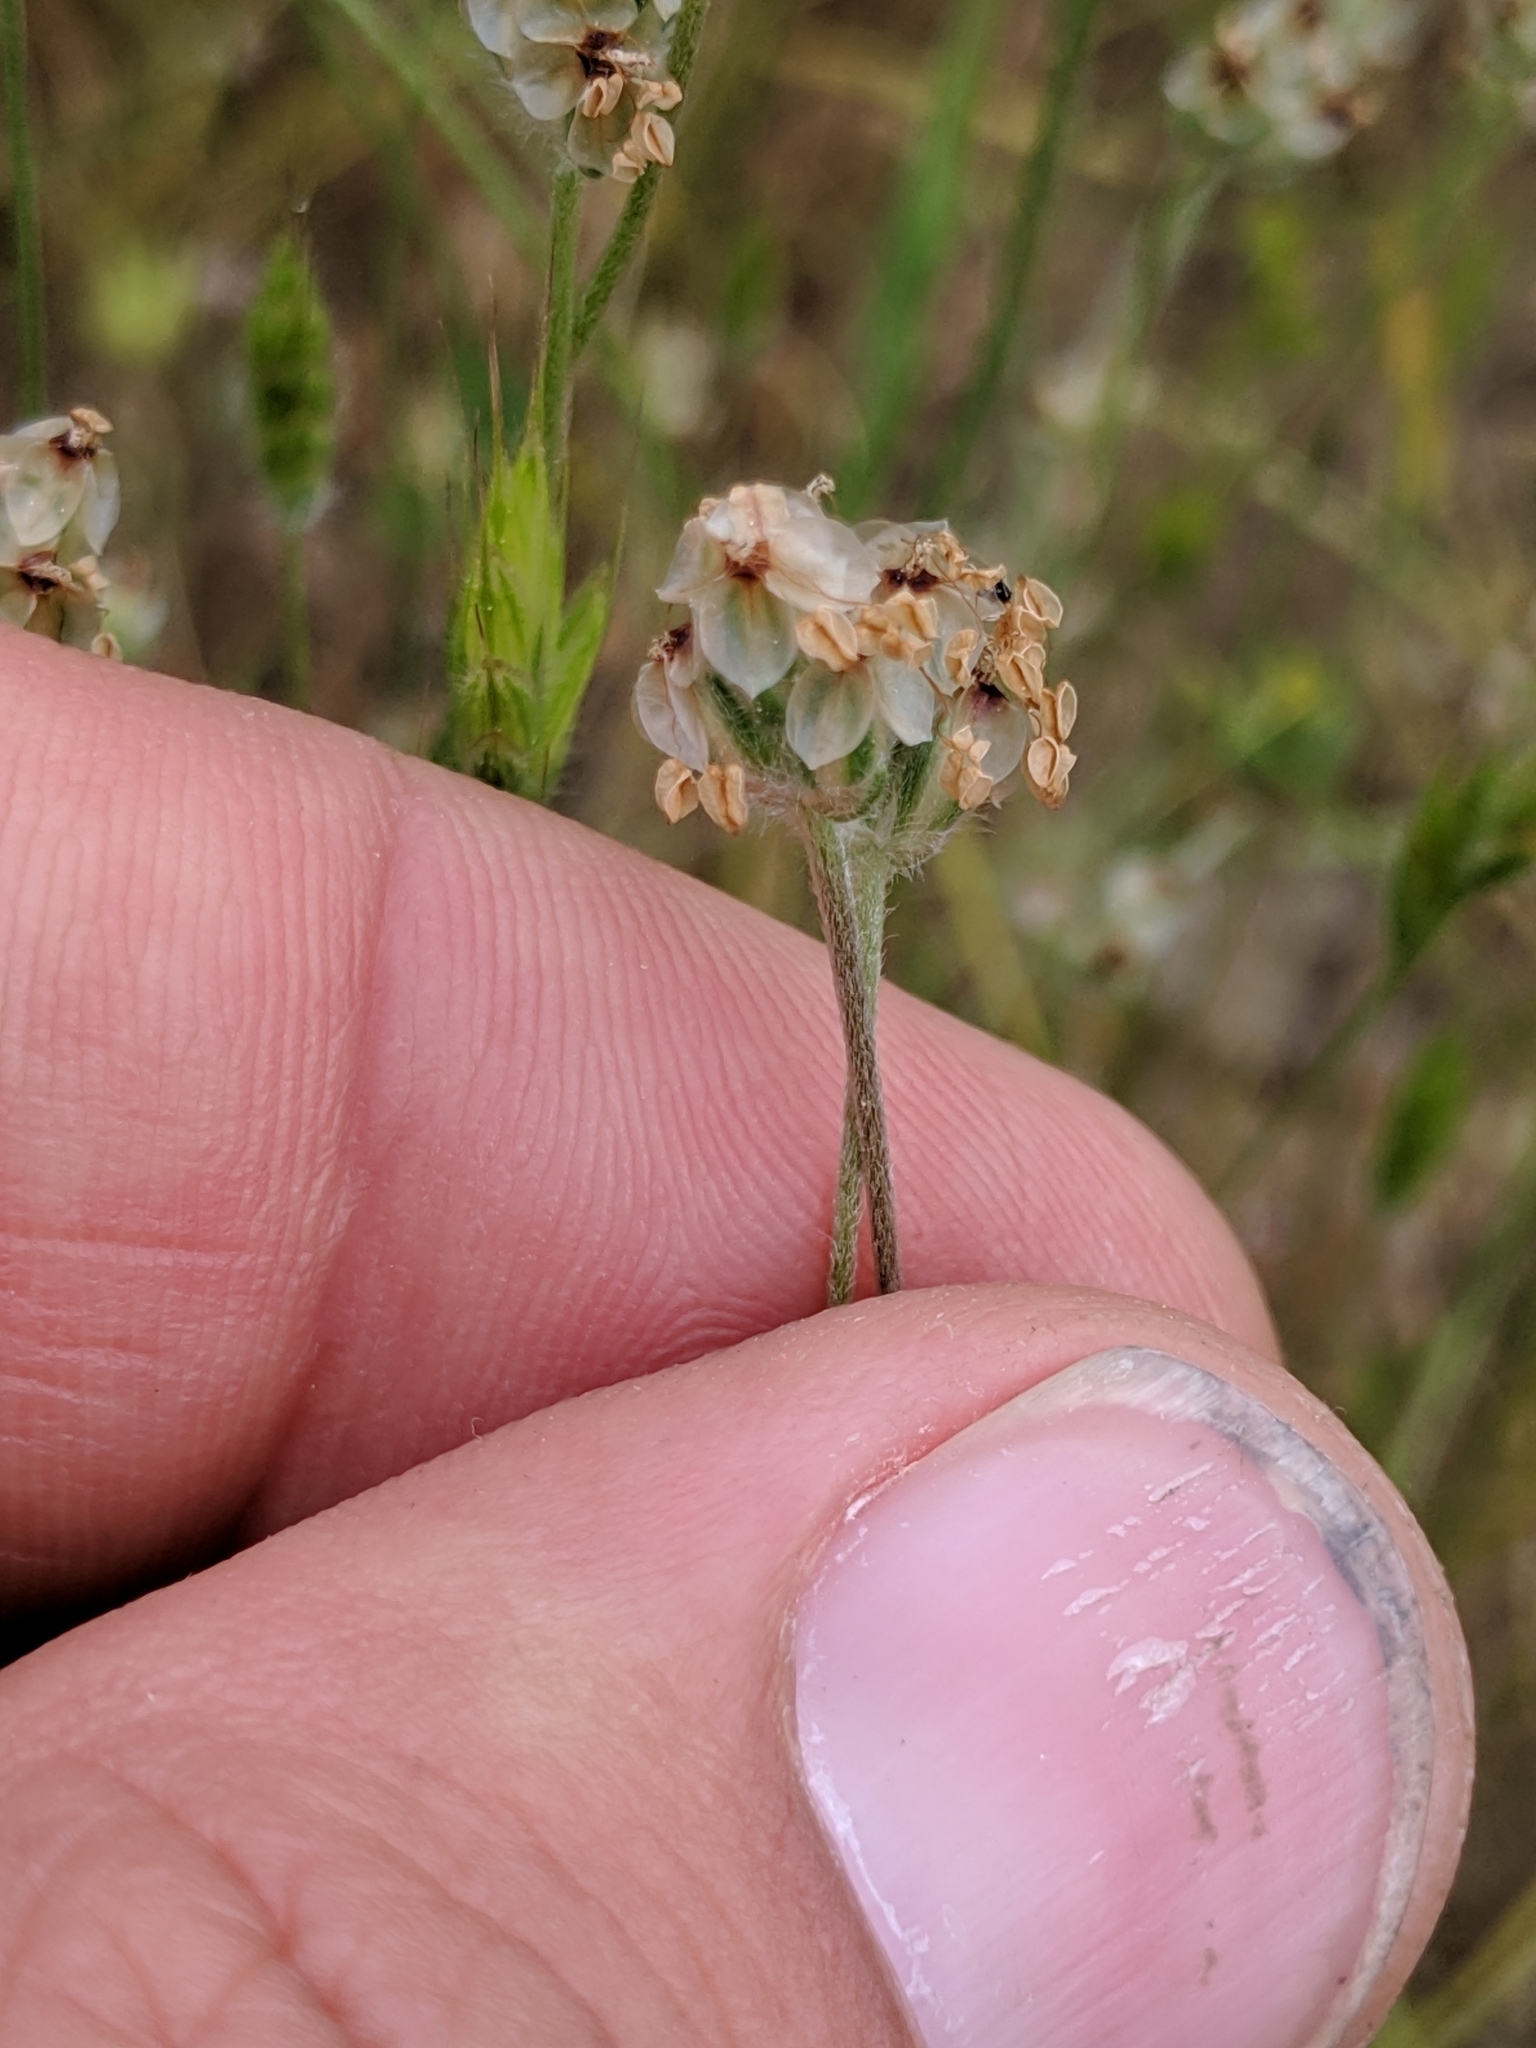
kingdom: Plantae
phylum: Tracheophyta
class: Magnoliopsida
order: Lamiales
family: Plantaginaceae
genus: Plantago
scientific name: Plantago erecta
